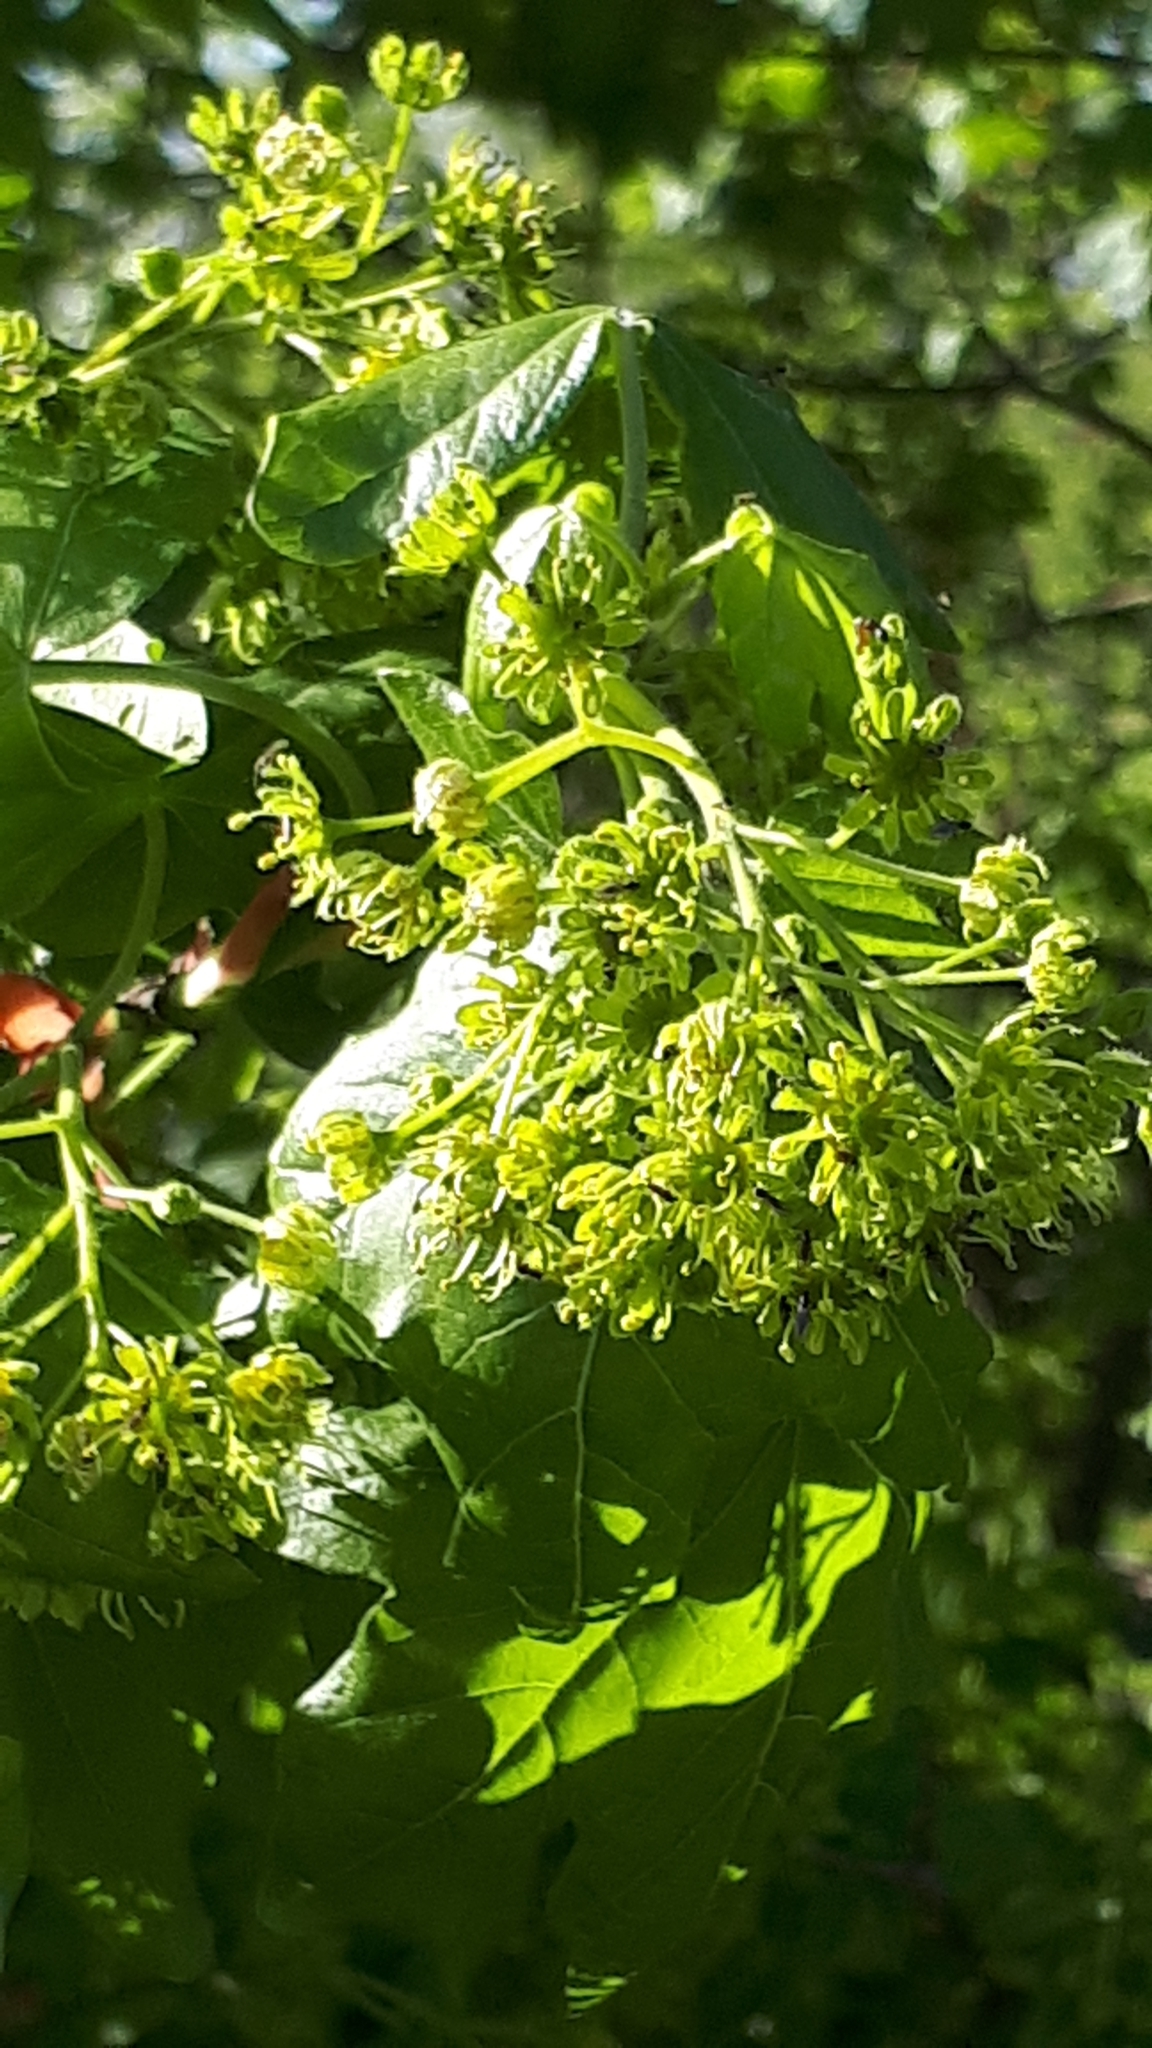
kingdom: Plantae
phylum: Tracheophyta
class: Magnoliopsida
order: Sapindales
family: Sapindaceae
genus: Acer
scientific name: Acer campestre
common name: Field maple
